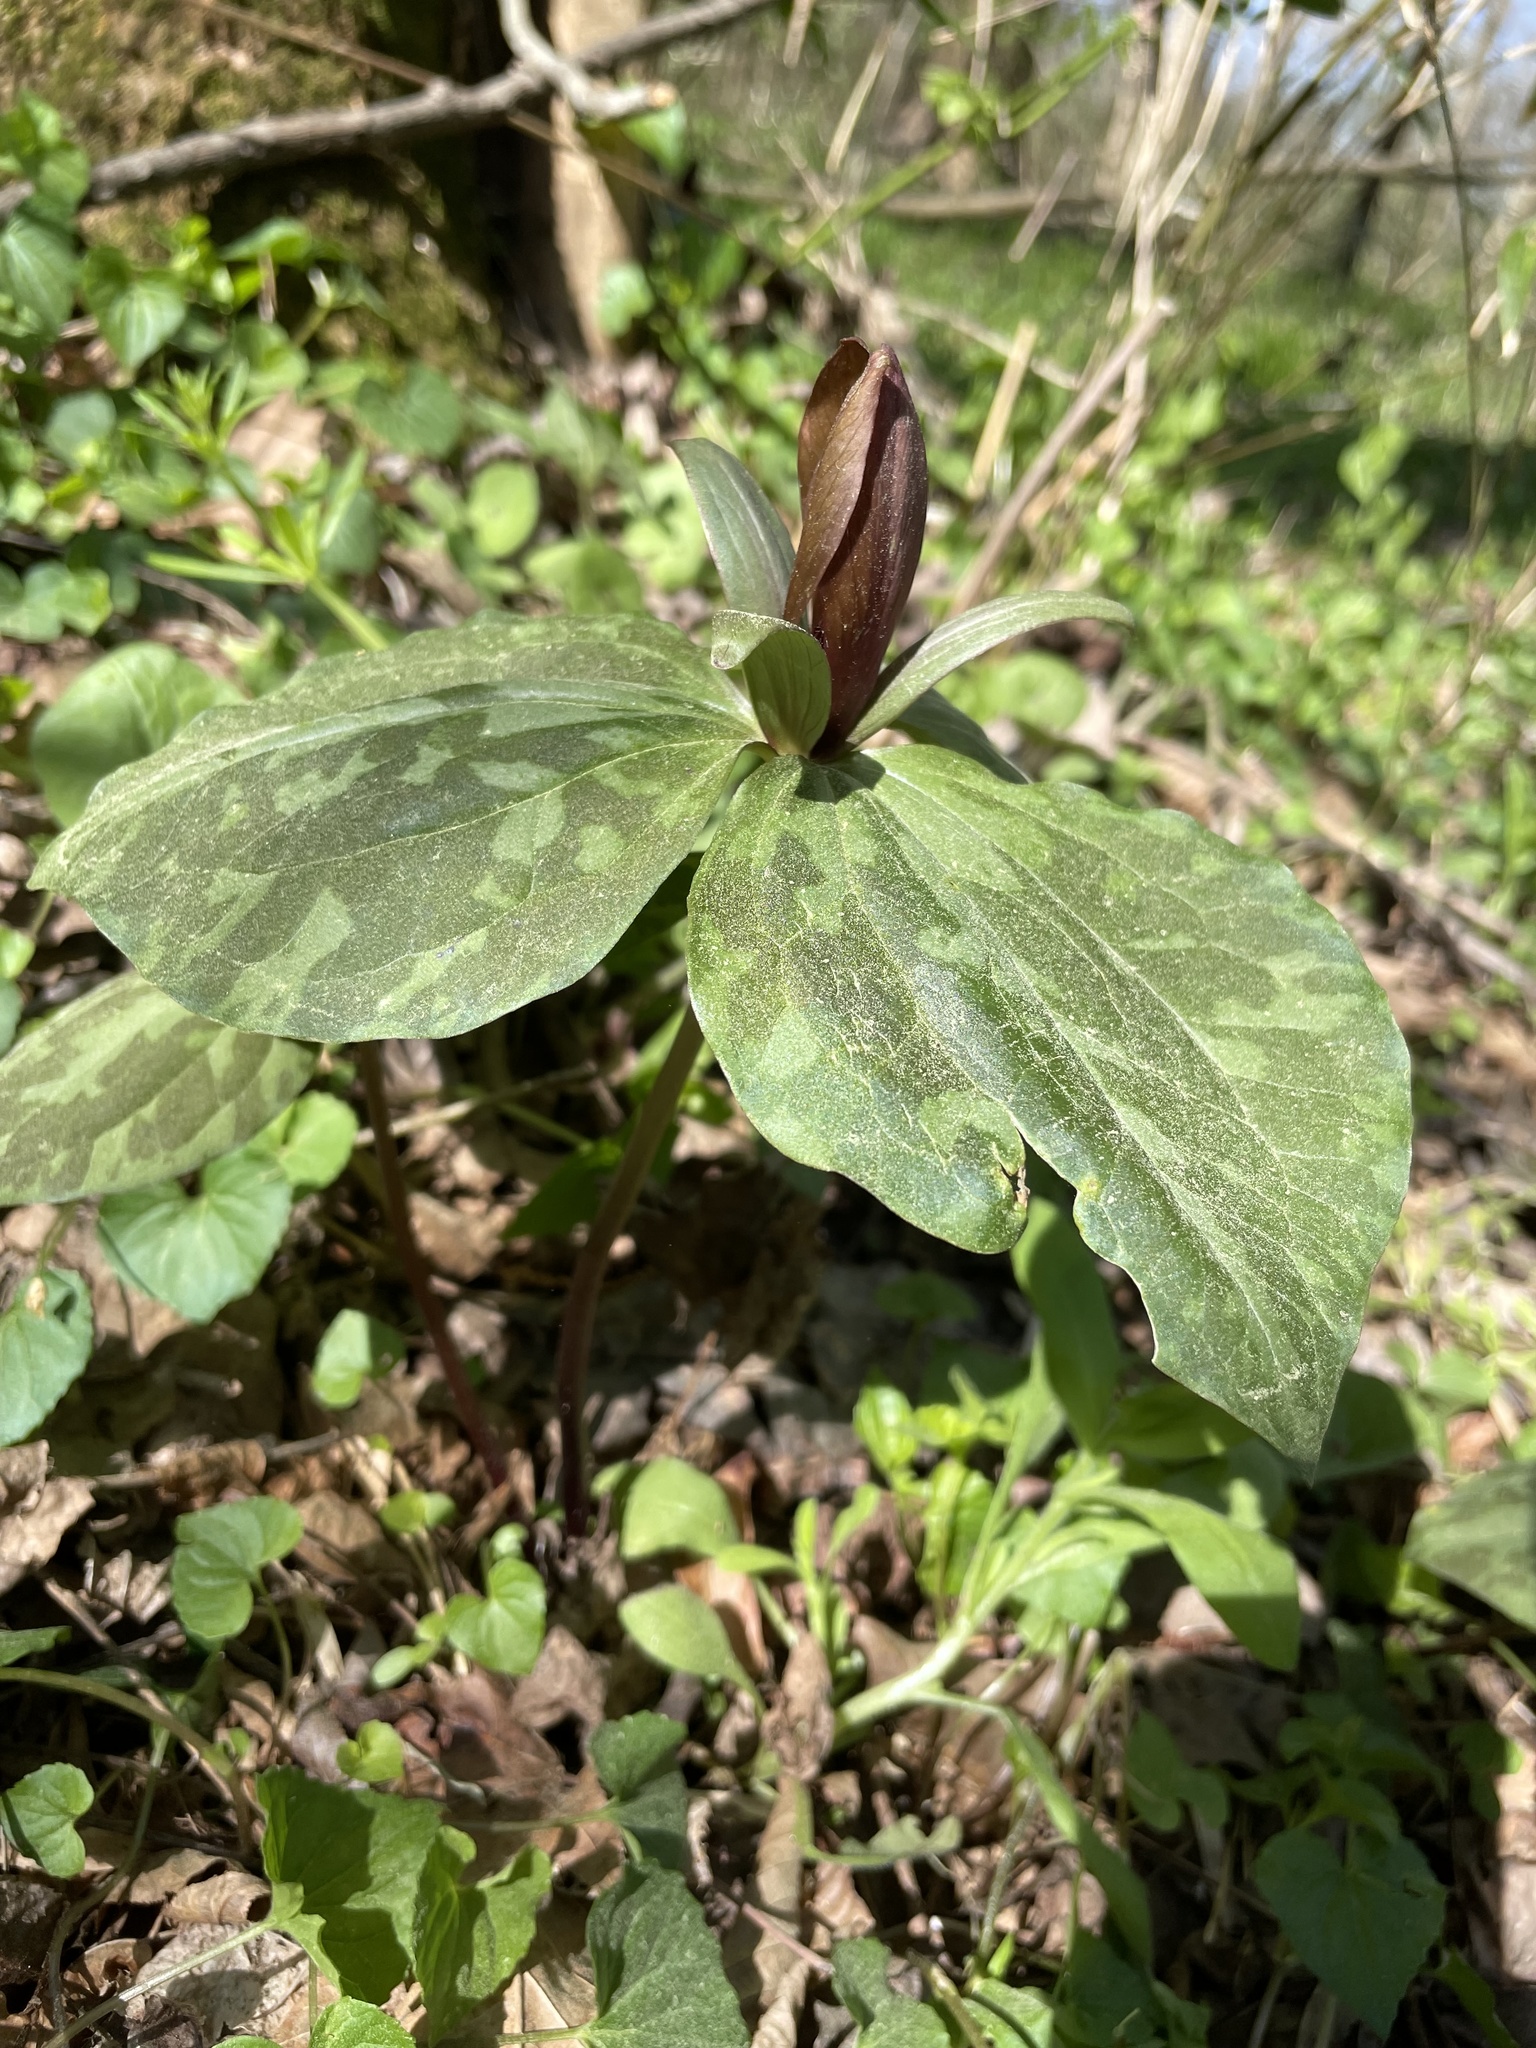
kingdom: Plantae
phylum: Tracheophyta
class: Liliopsida
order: Liliales
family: Melanthiaceae
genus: Trillium
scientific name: Trillium cuneatum
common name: Cuneate trillium
